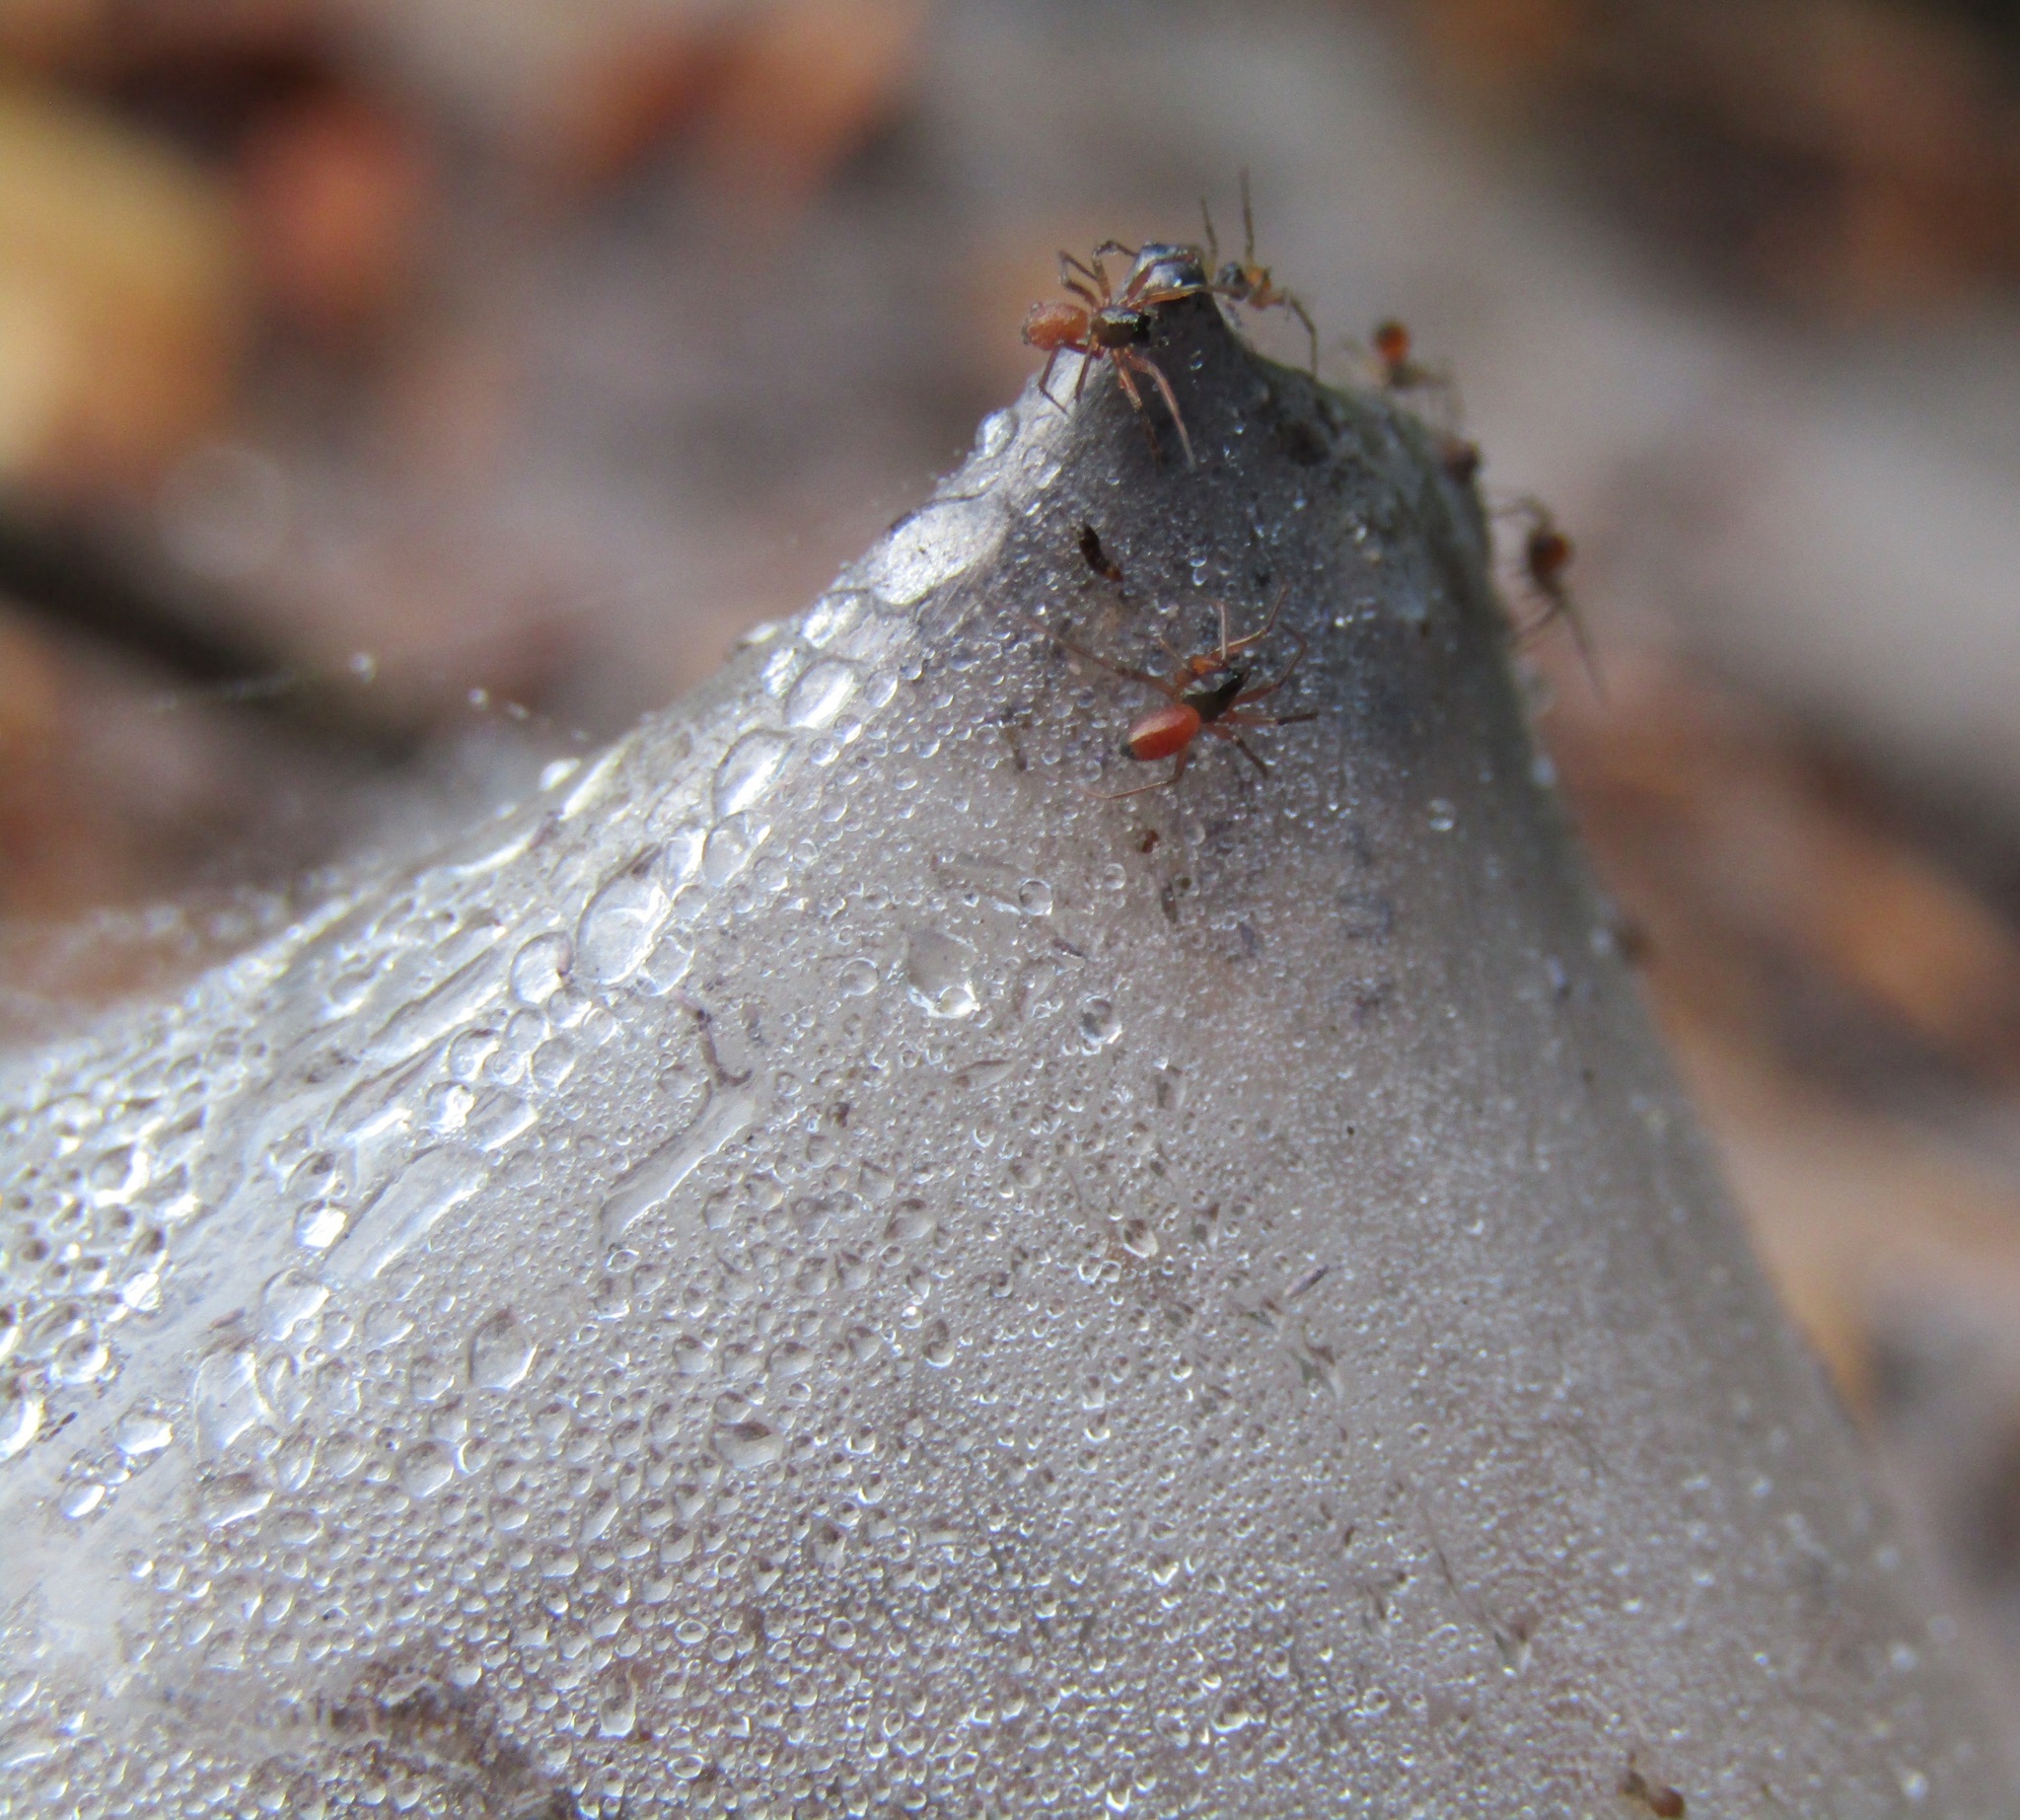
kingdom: Animalia
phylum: Arthropoda
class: Arachnida
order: Araneae
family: Linyphiidae
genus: Ostearius
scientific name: Ostearius melanopygius
